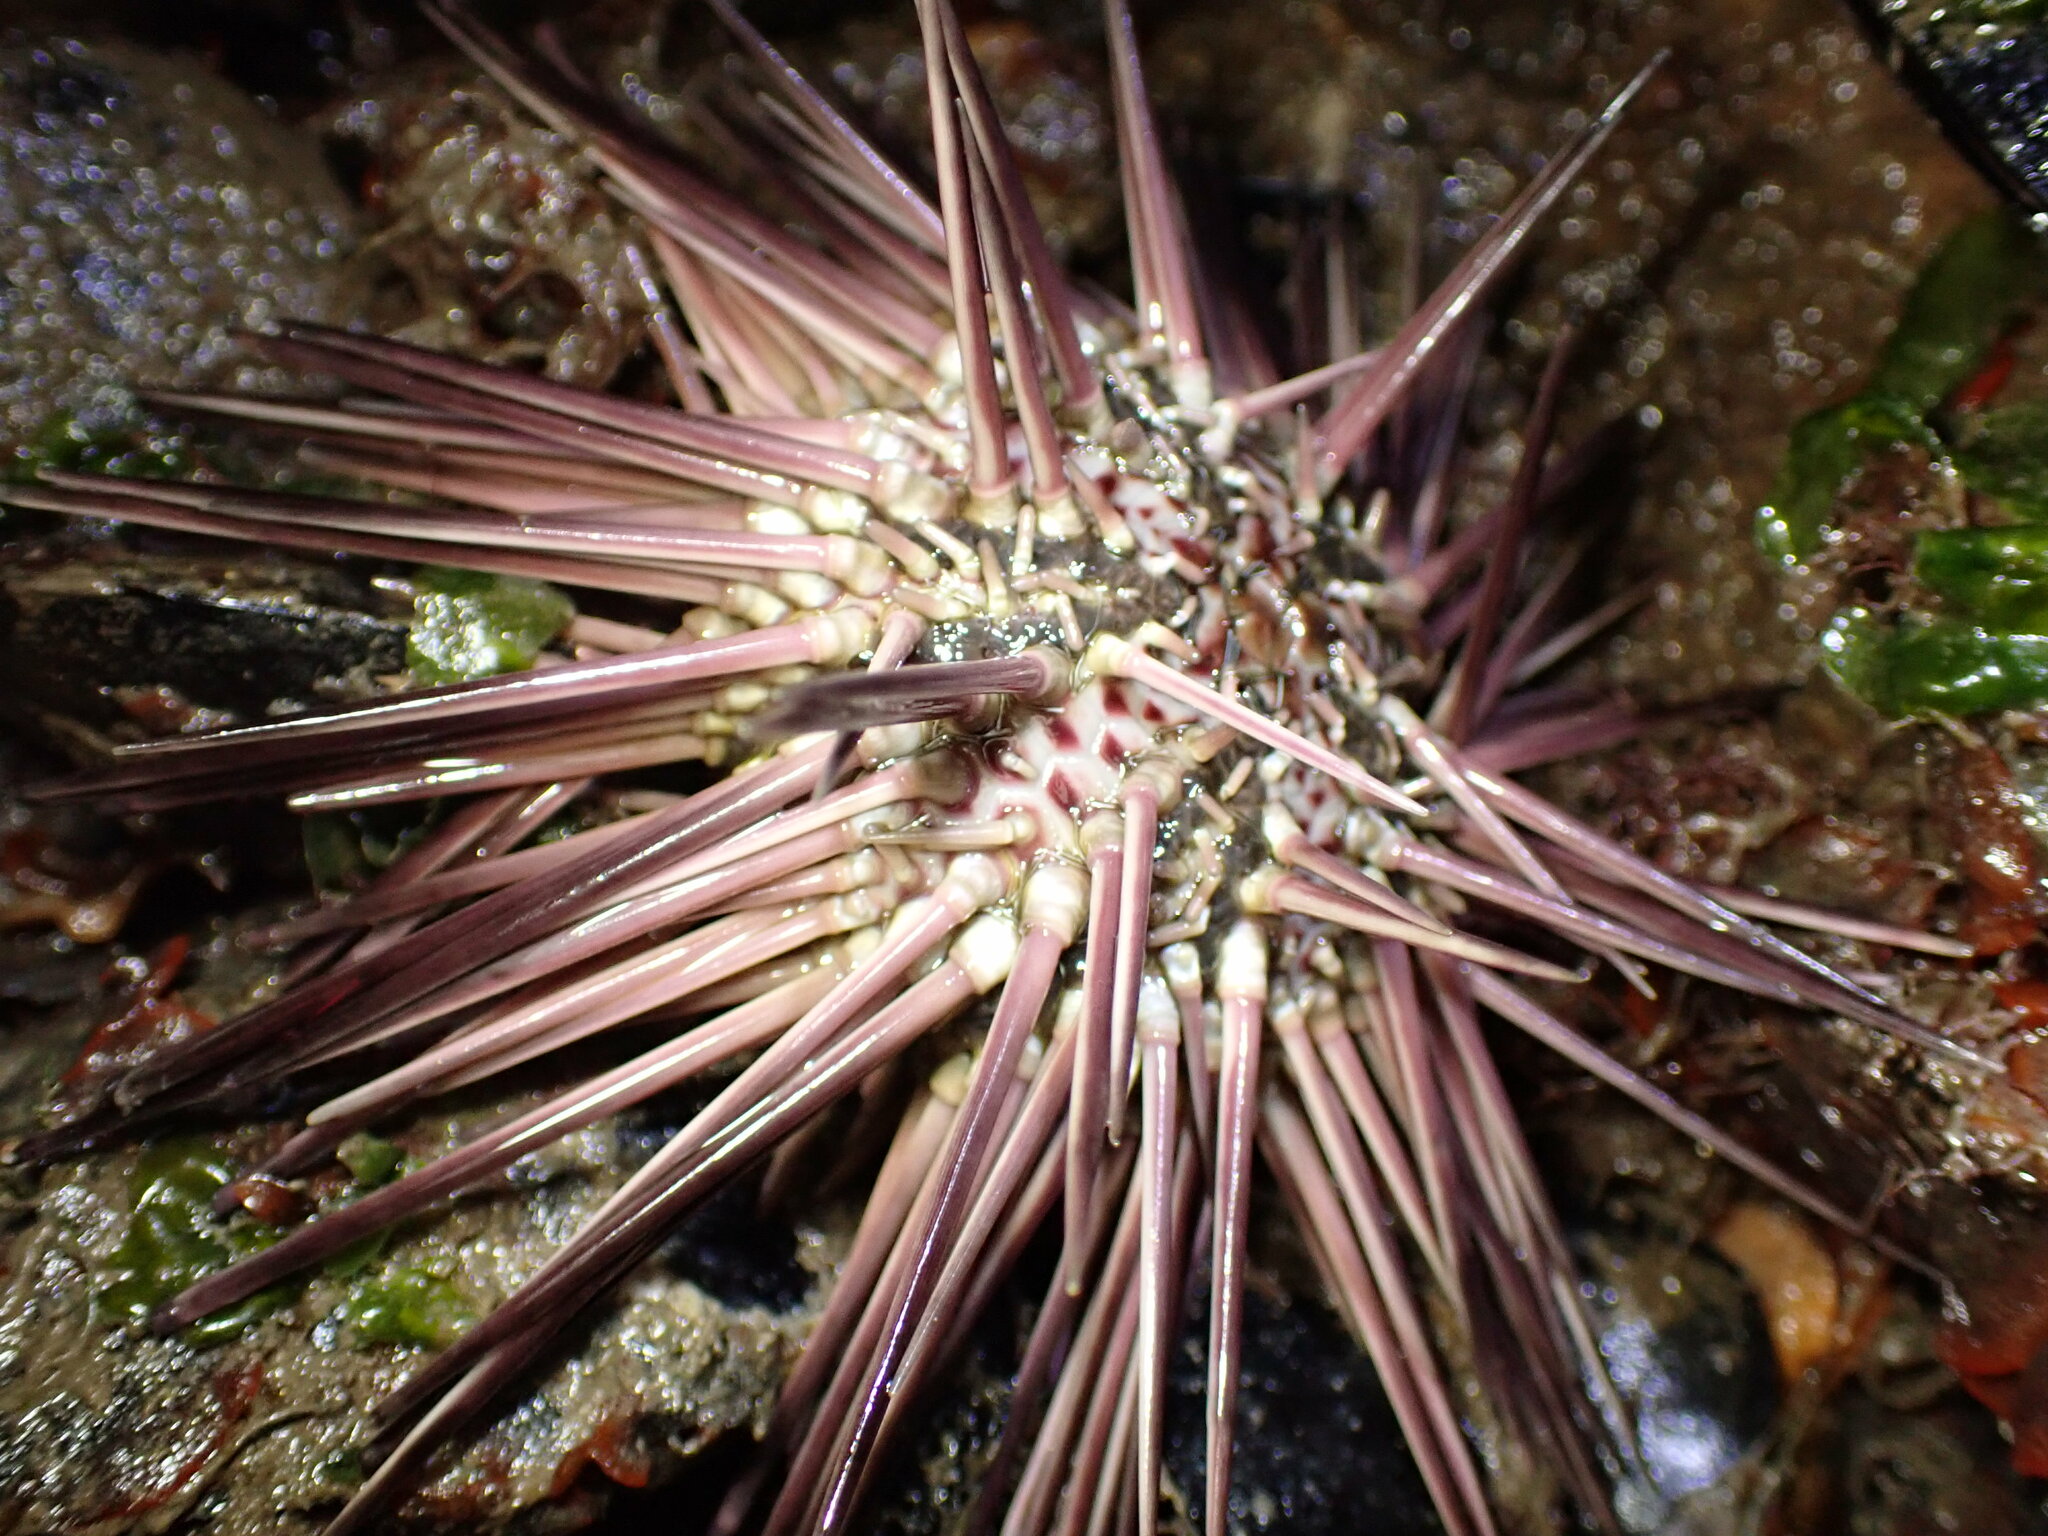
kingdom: Animalia
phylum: Echinodermata
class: Echinoidea
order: Arbacioida
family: Arbaciidae
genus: Arbacia
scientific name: Arbacia stellata
